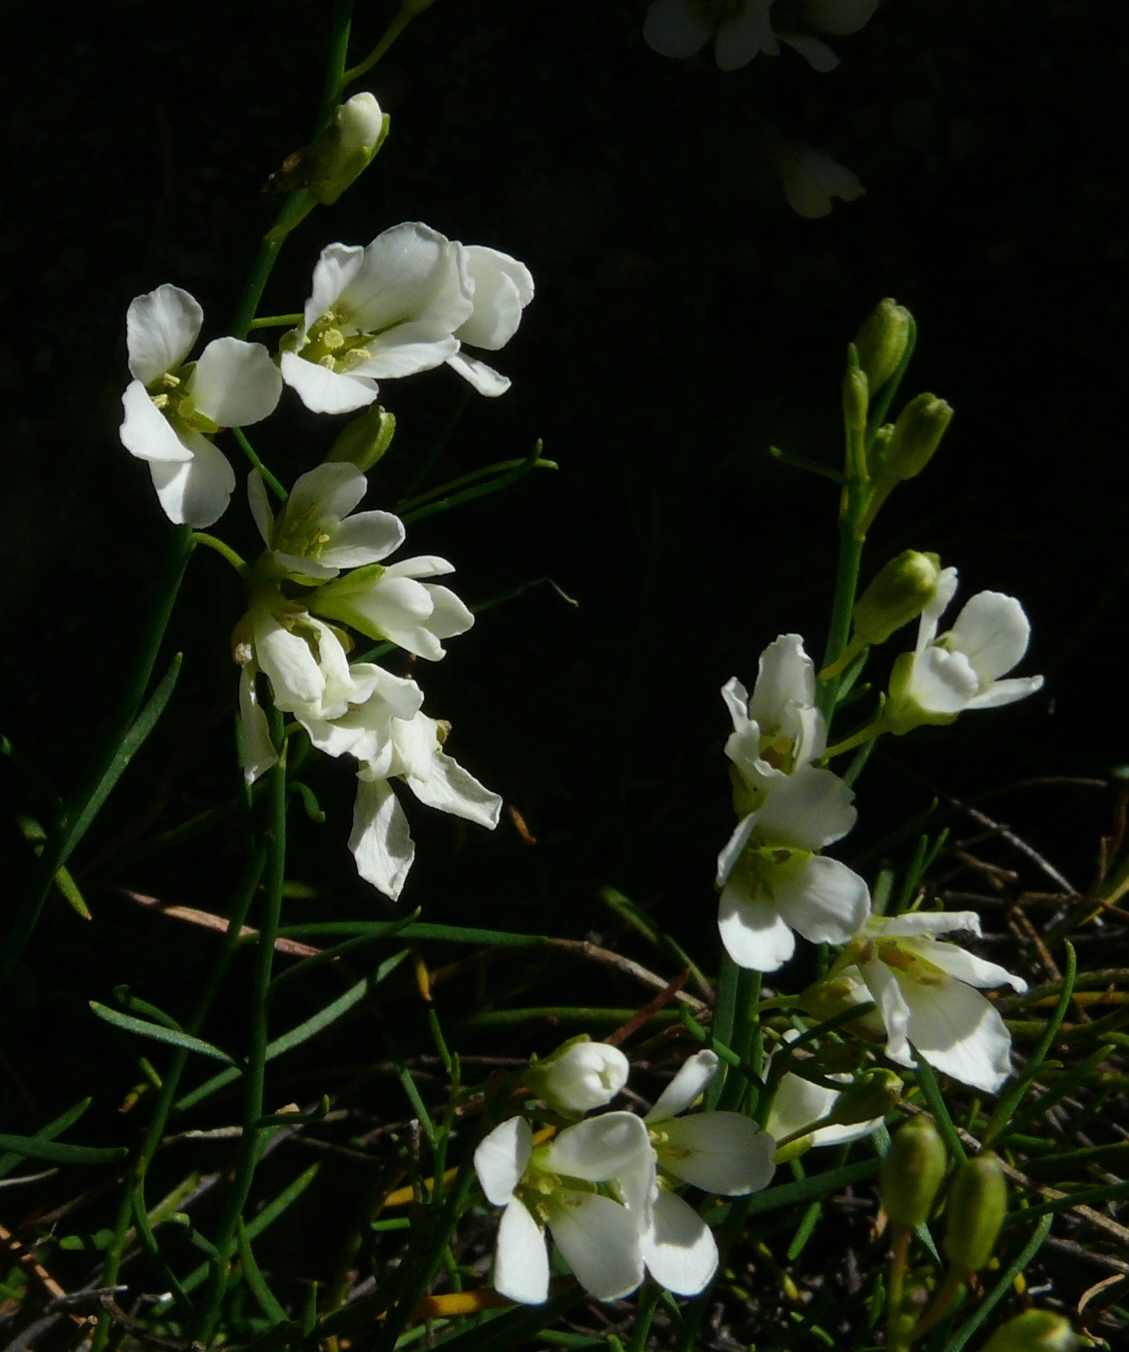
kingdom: Plantae
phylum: Tracheophyta
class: Magnoliopsida
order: Brassicales
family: Brassicaceae
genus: Heliophila
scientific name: Heliophila monosperma
